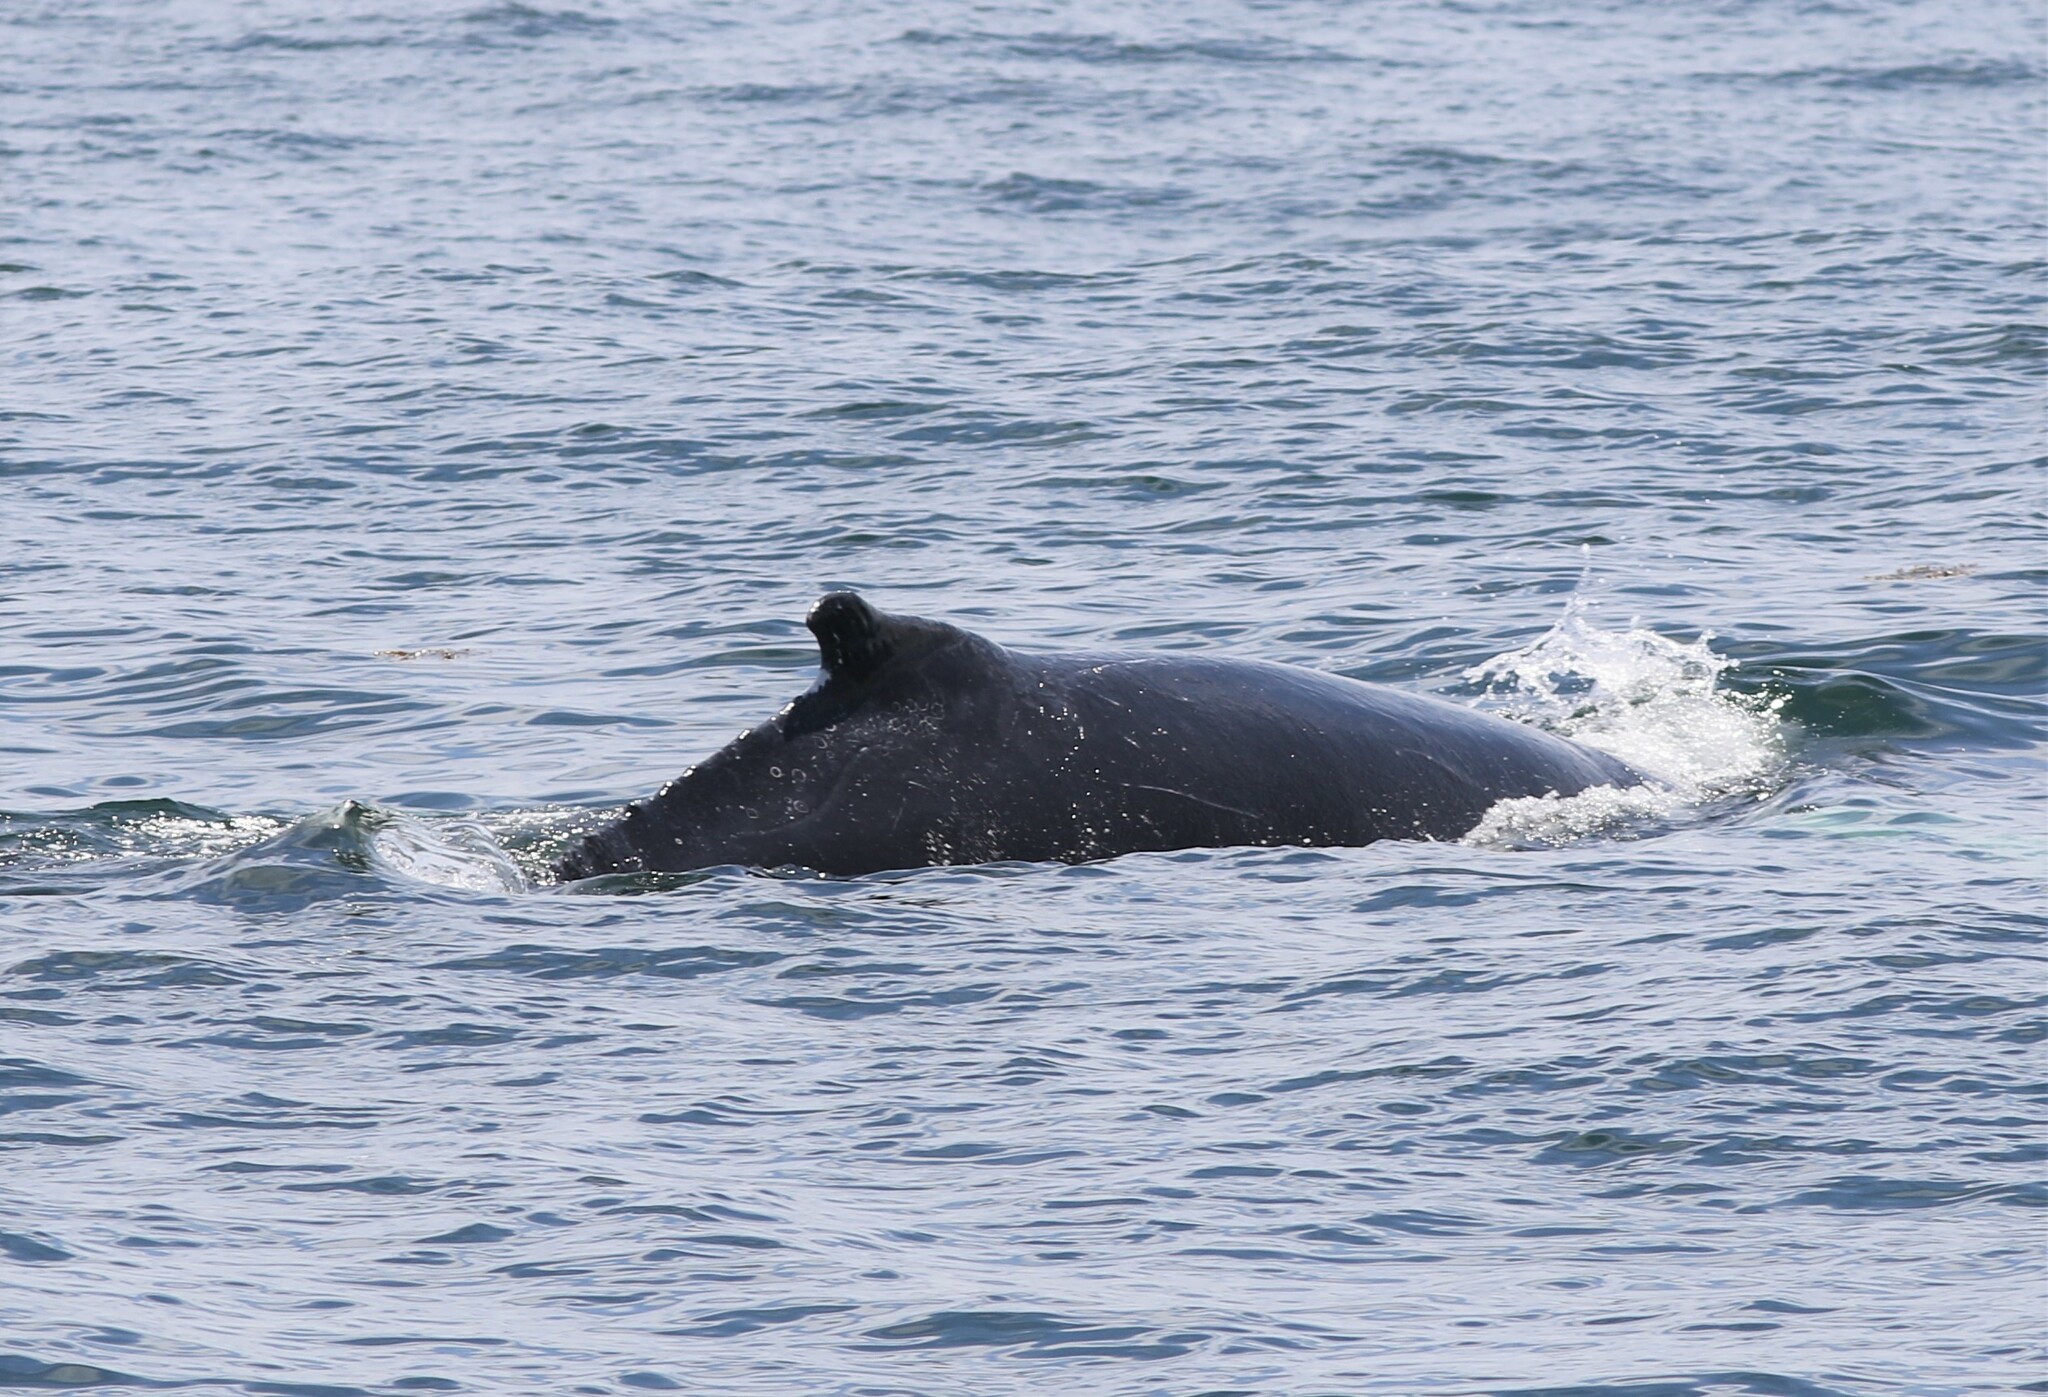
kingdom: Animalia
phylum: Chordata
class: Mammalia
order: Cetacea
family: Balaenopteridae
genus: Megaptera
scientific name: Megaptera novaeangliae
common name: Humpback whale
